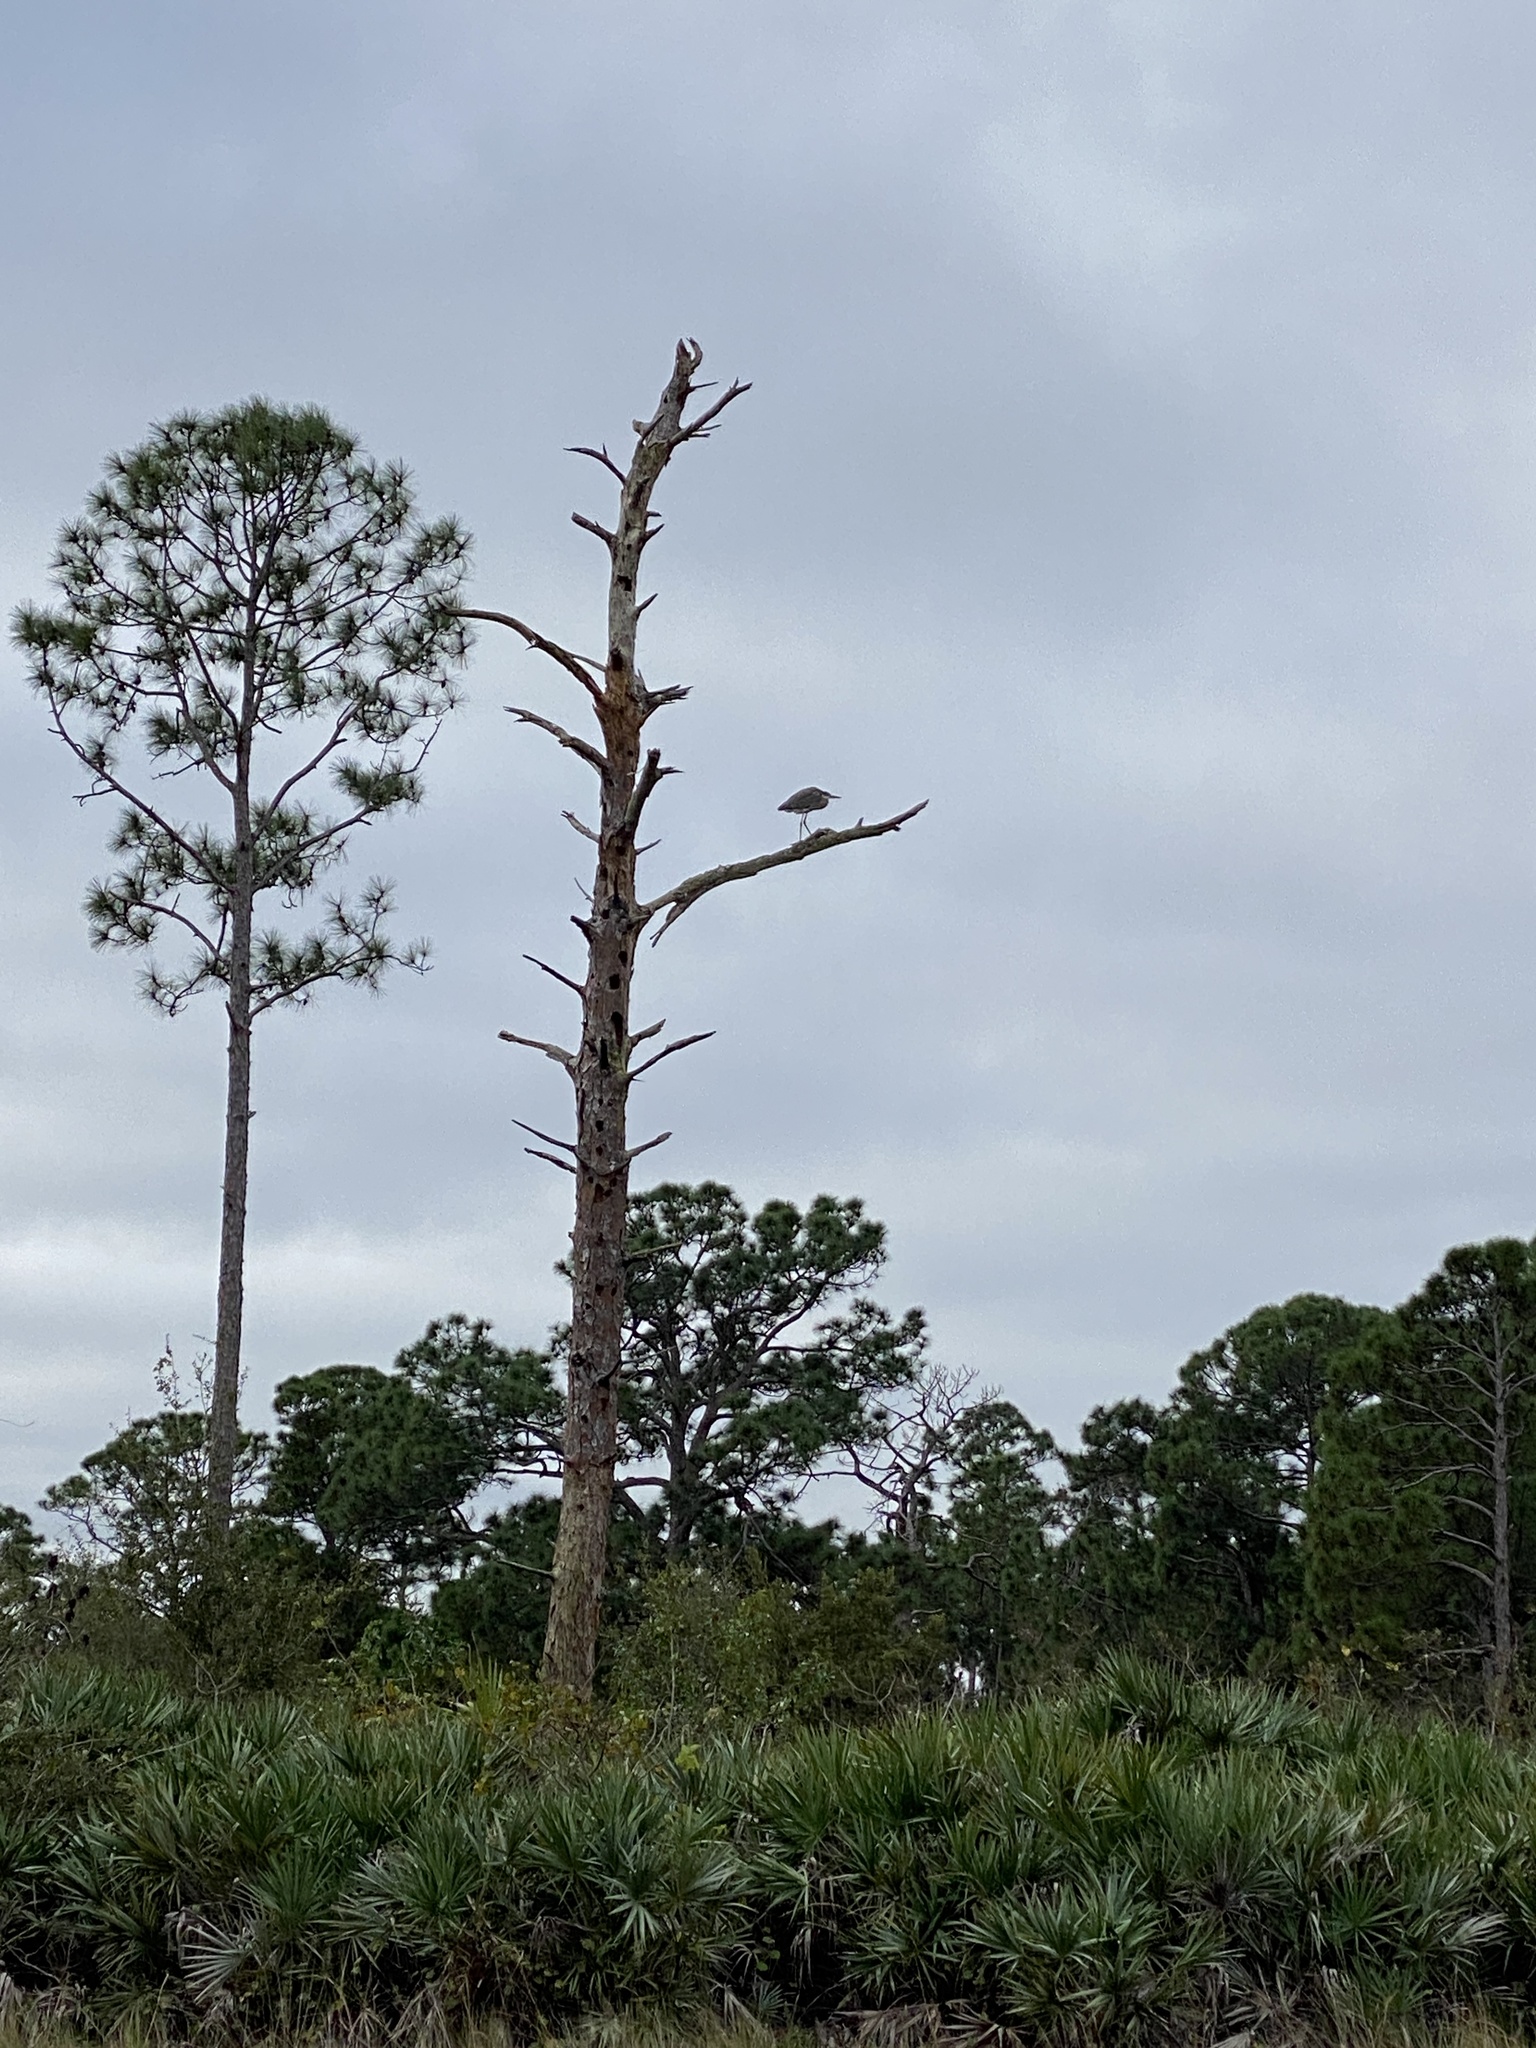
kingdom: Animalia
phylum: Chordata
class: Aves
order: Pelecaniformes
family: Ardeidae
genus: Ardea
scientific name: Ardea herodias
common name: Great blue heron
